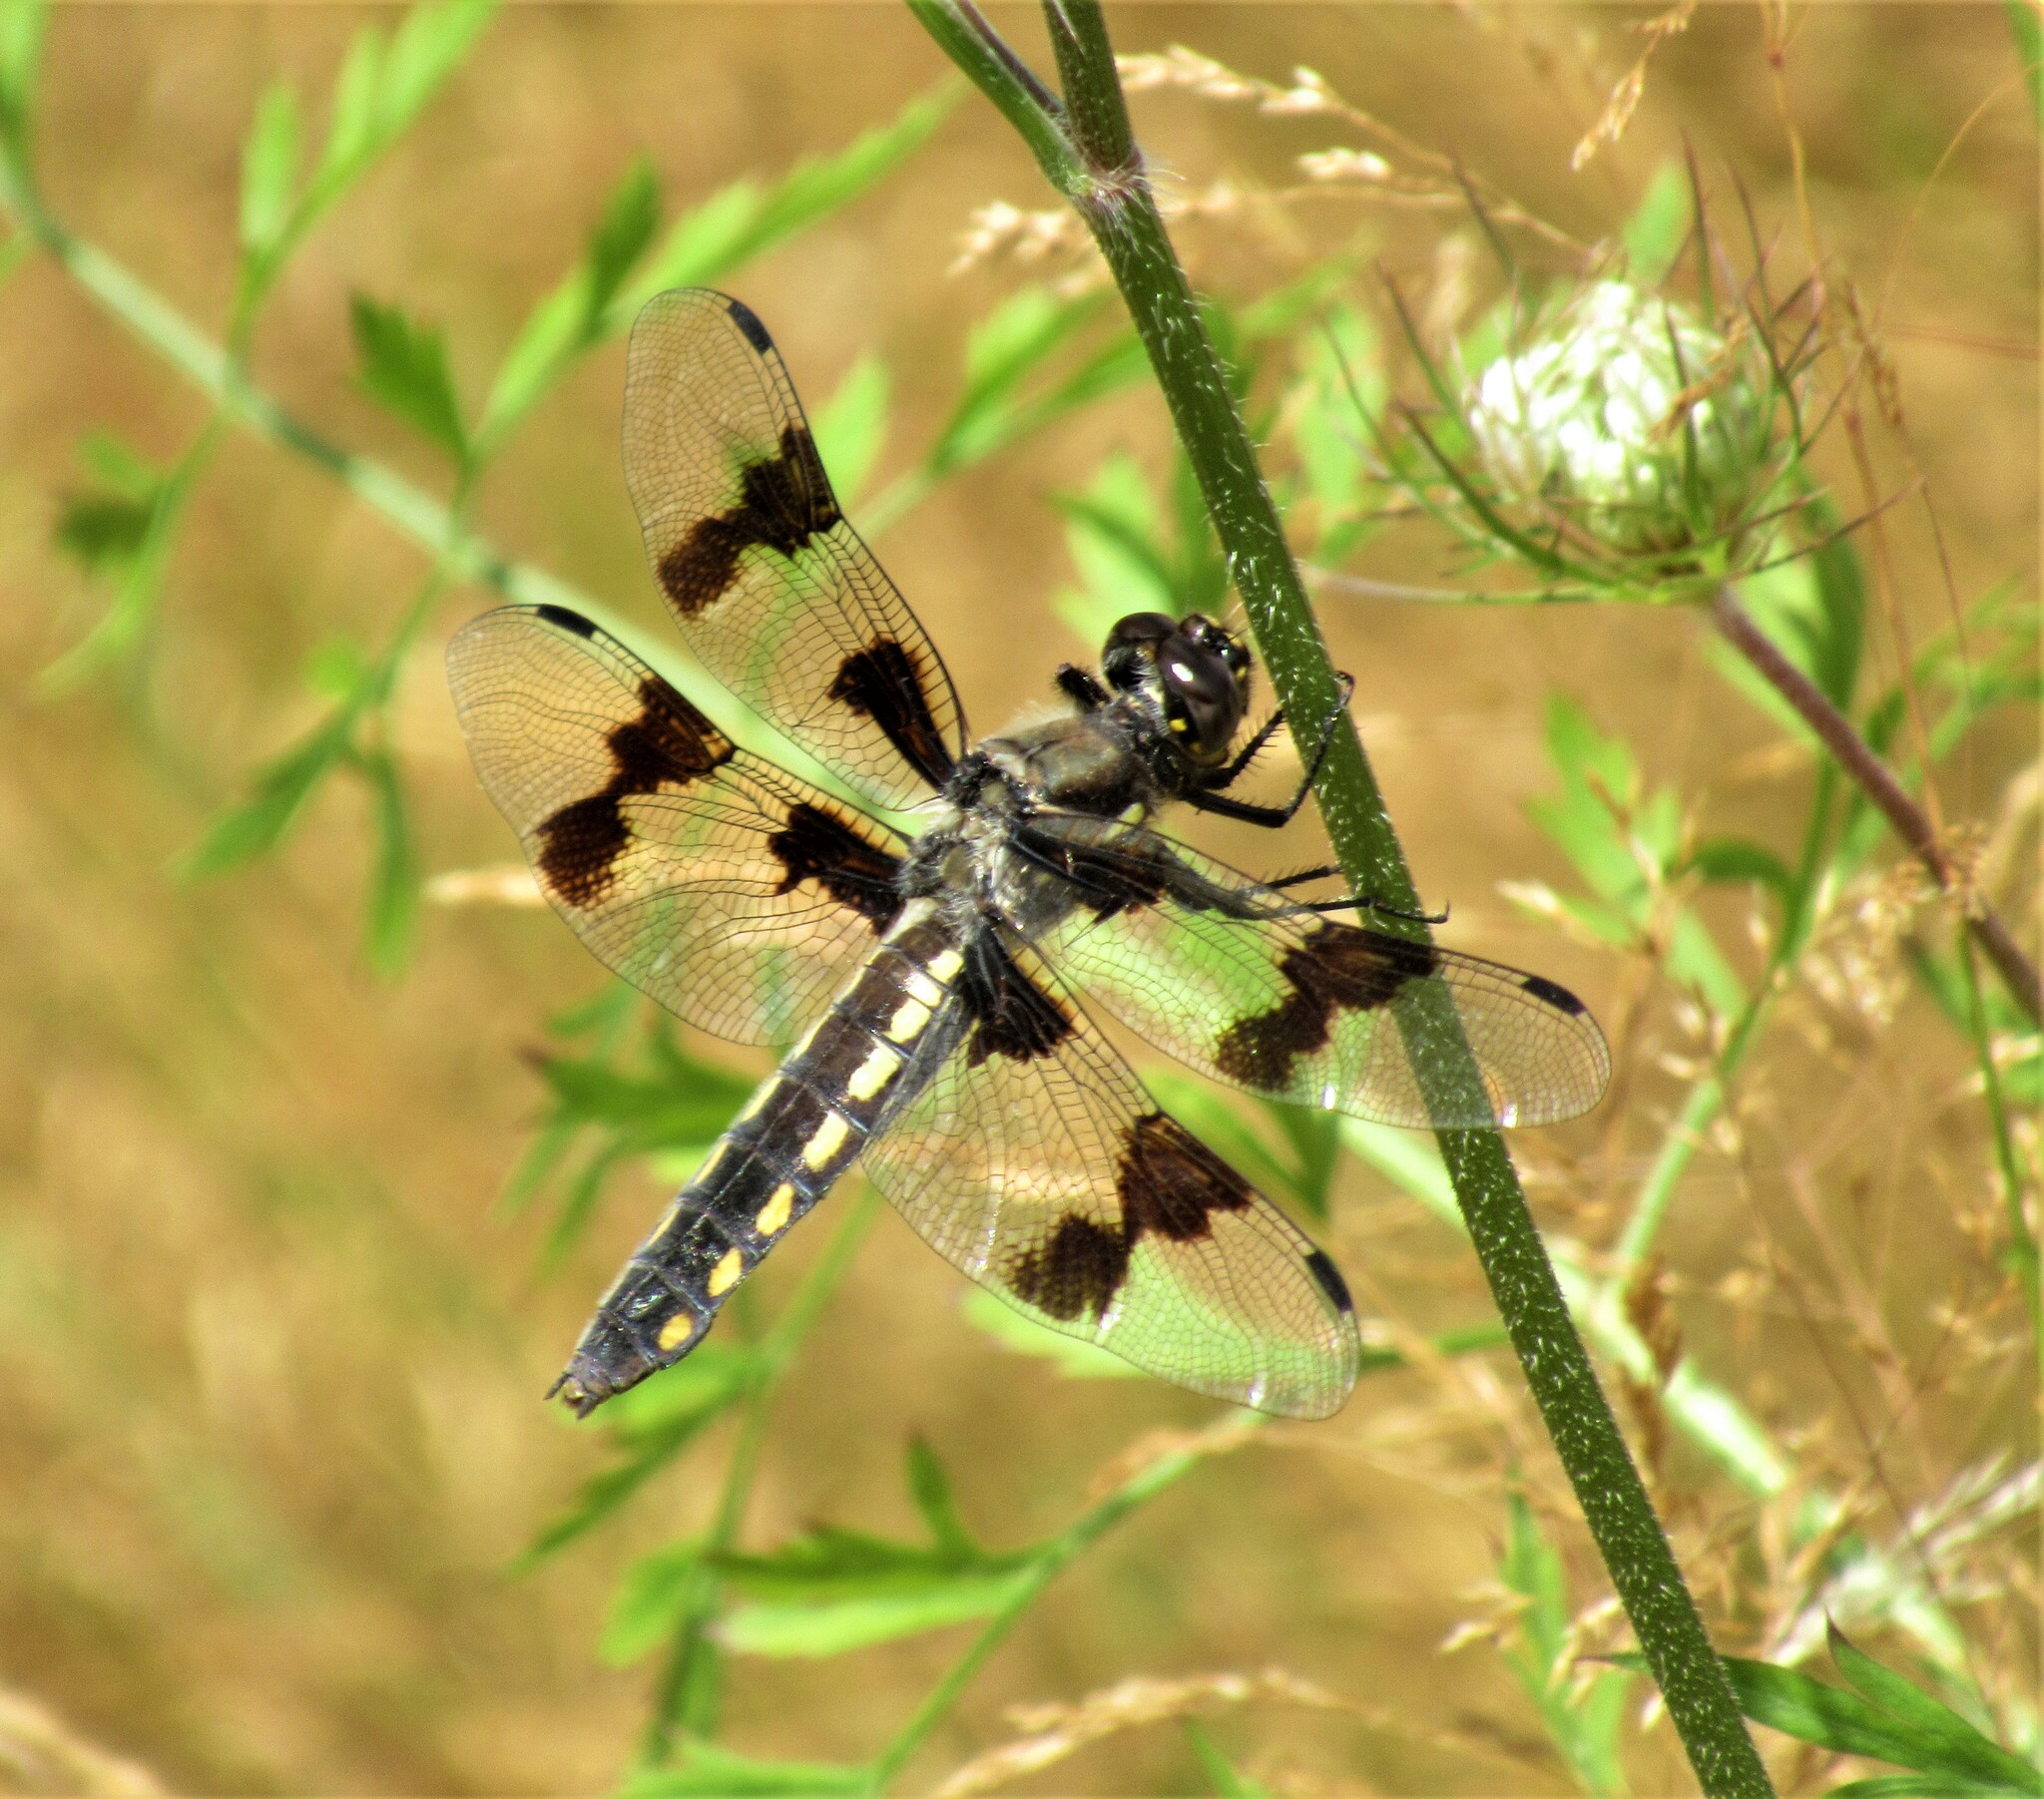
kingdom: Animalia
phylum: Arthropoda
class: Insecta
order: Odonata
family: Libellulidae
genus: Libellula
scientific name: Libellula forensis
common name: Eight-spotted skimmer
